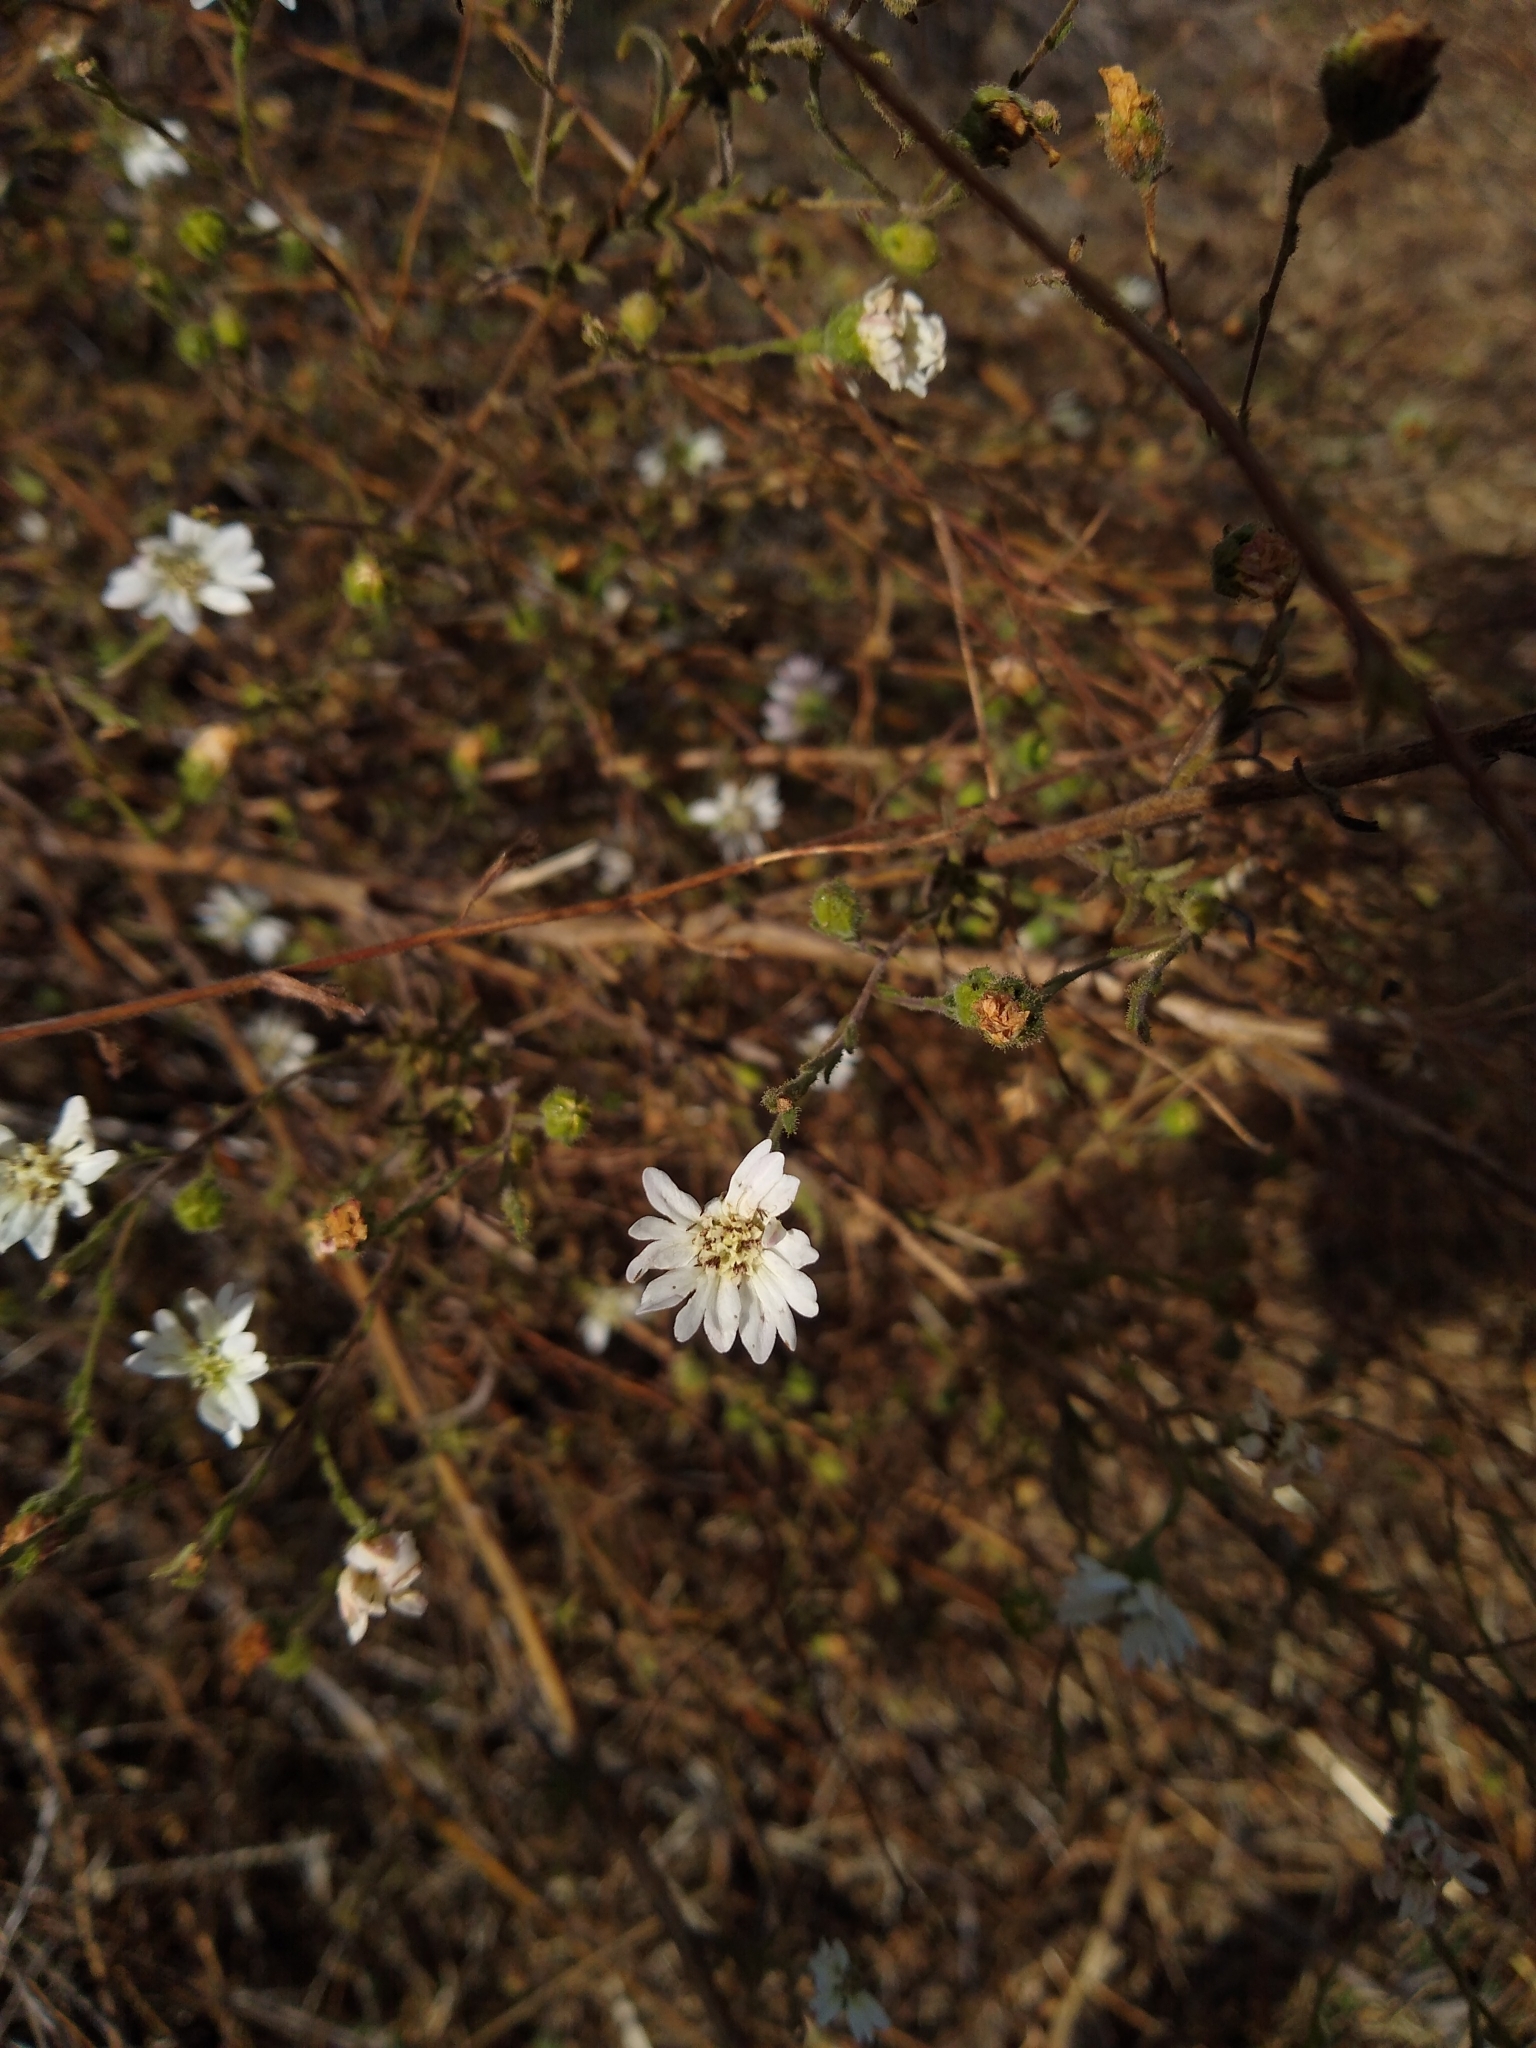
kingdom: Plantae
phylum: Tracheophyta
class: Magnoliopsida
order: Asterales
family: Asteraceae
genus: Hemizonia
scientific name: Hemizonia congesta
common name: Hayfield tarweed
